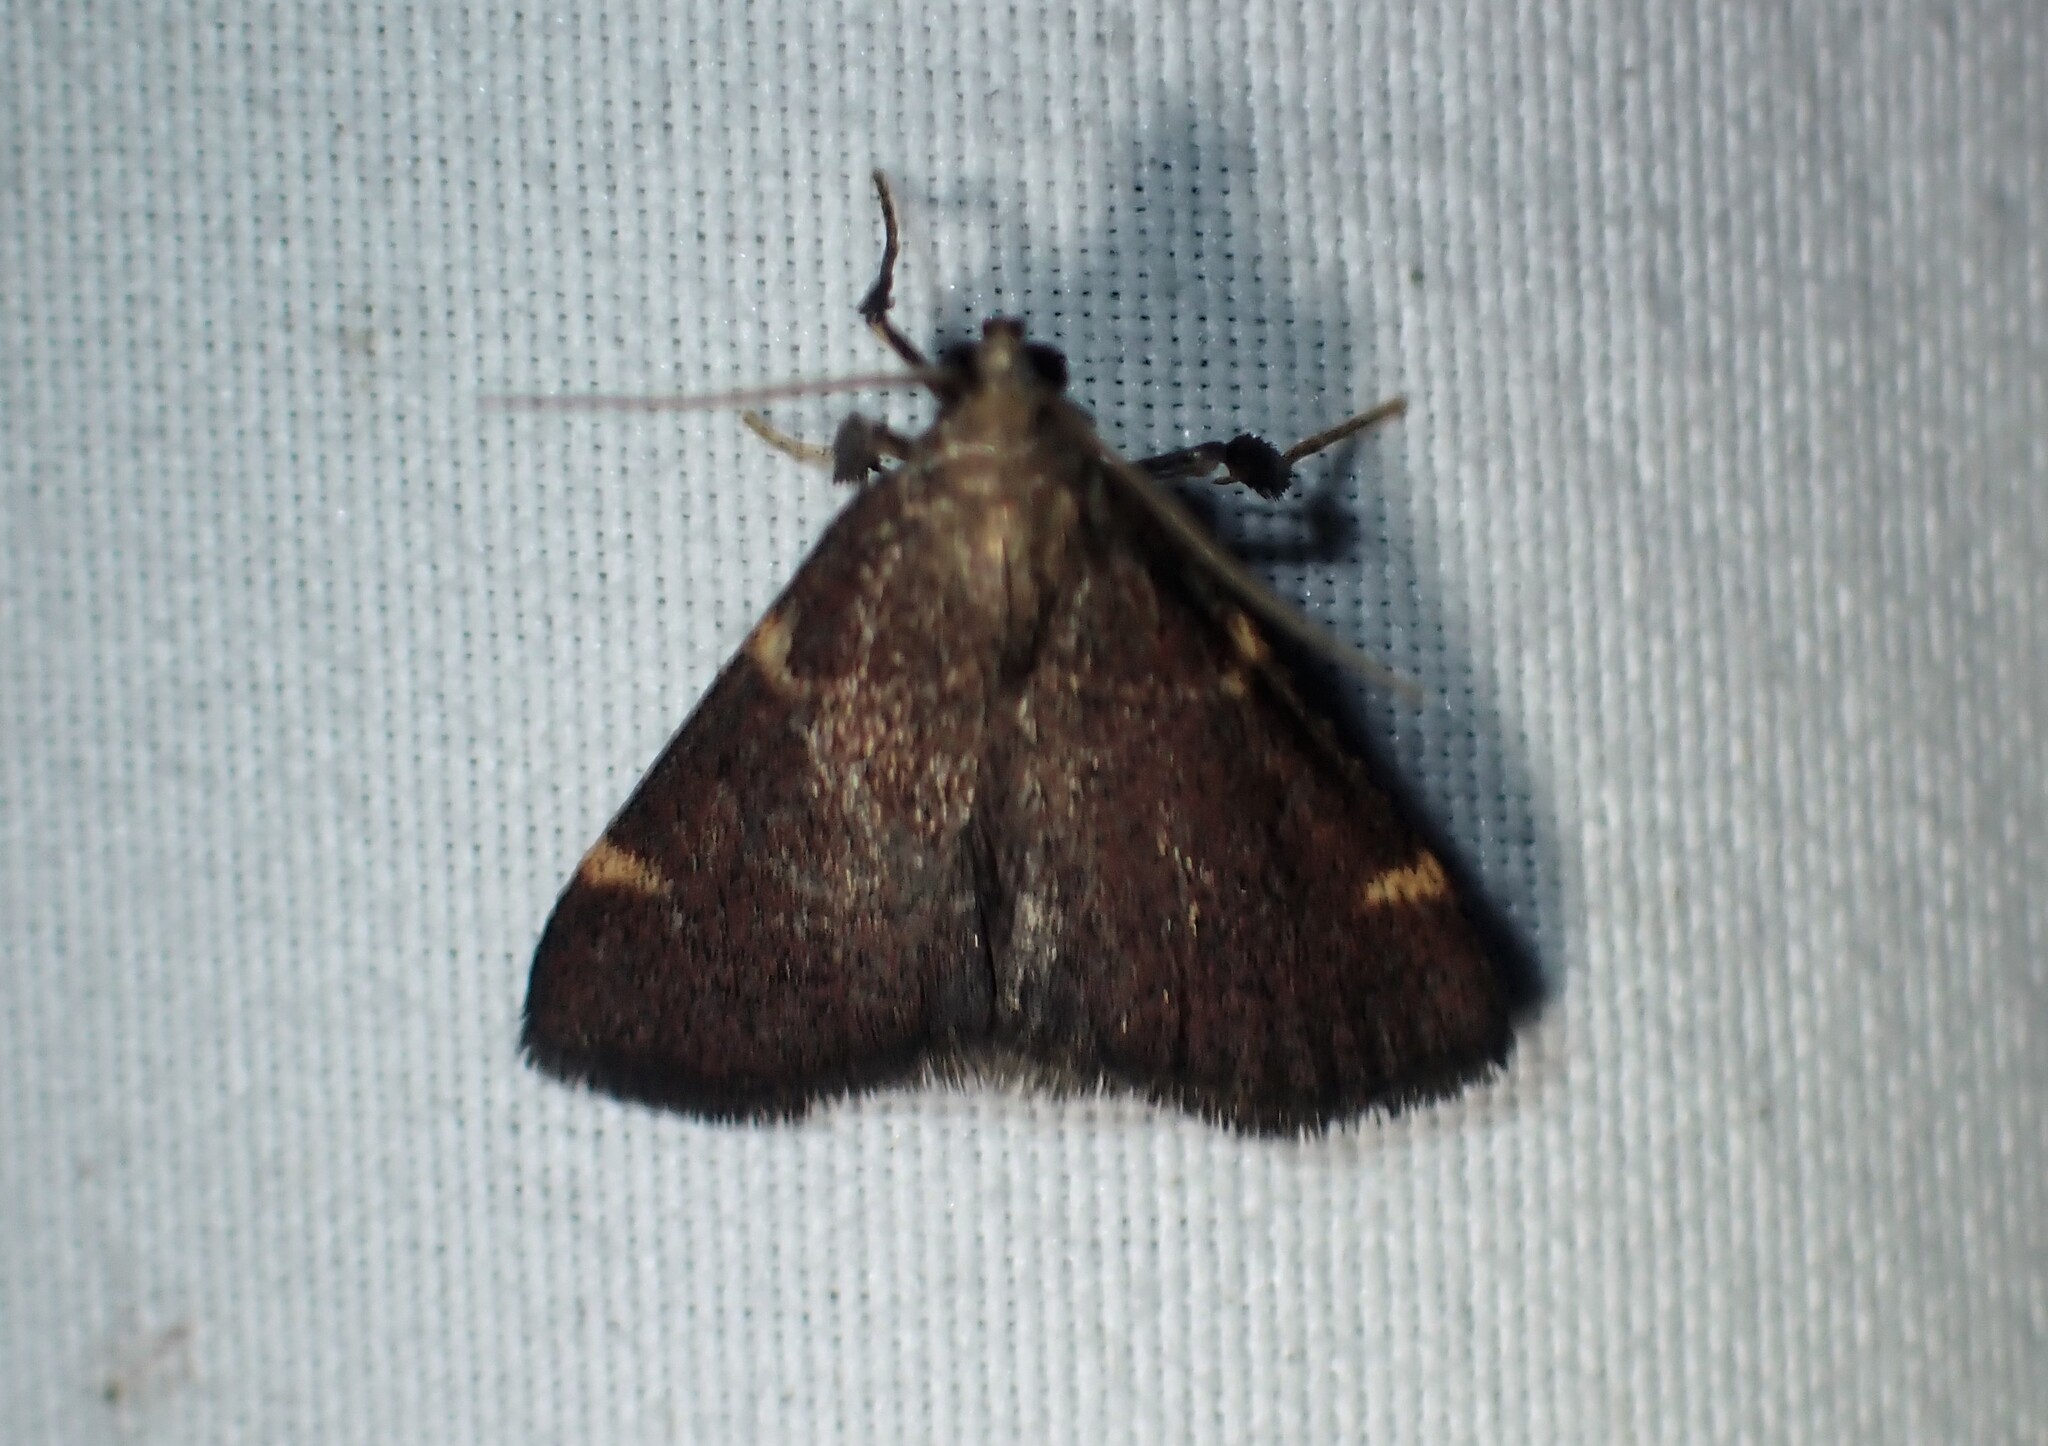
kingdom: Animalia
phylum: Arthropoda
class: Insecta
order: Lepidoptera
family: Pyralidae
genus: Hypsopygia
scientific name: Hypsopygia thymetusalis
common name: Spruce needleworm moth
